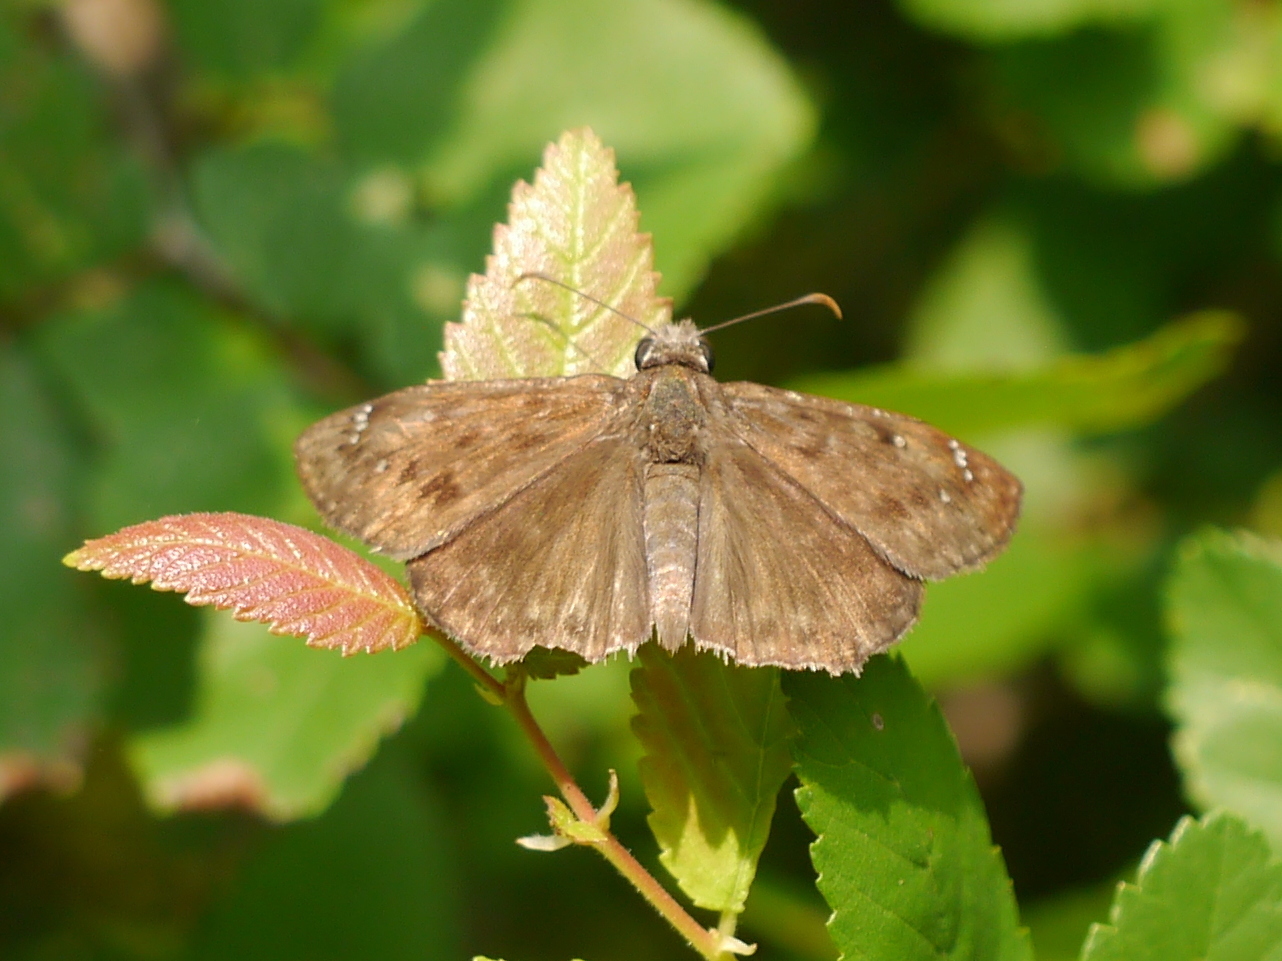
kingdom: Animalia
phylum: Arthropoda
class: Insecta
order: Lepidoptera
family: Hesperiidae
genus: Erynnis
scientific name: Erynnis horatius
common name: Horace's duskywing
